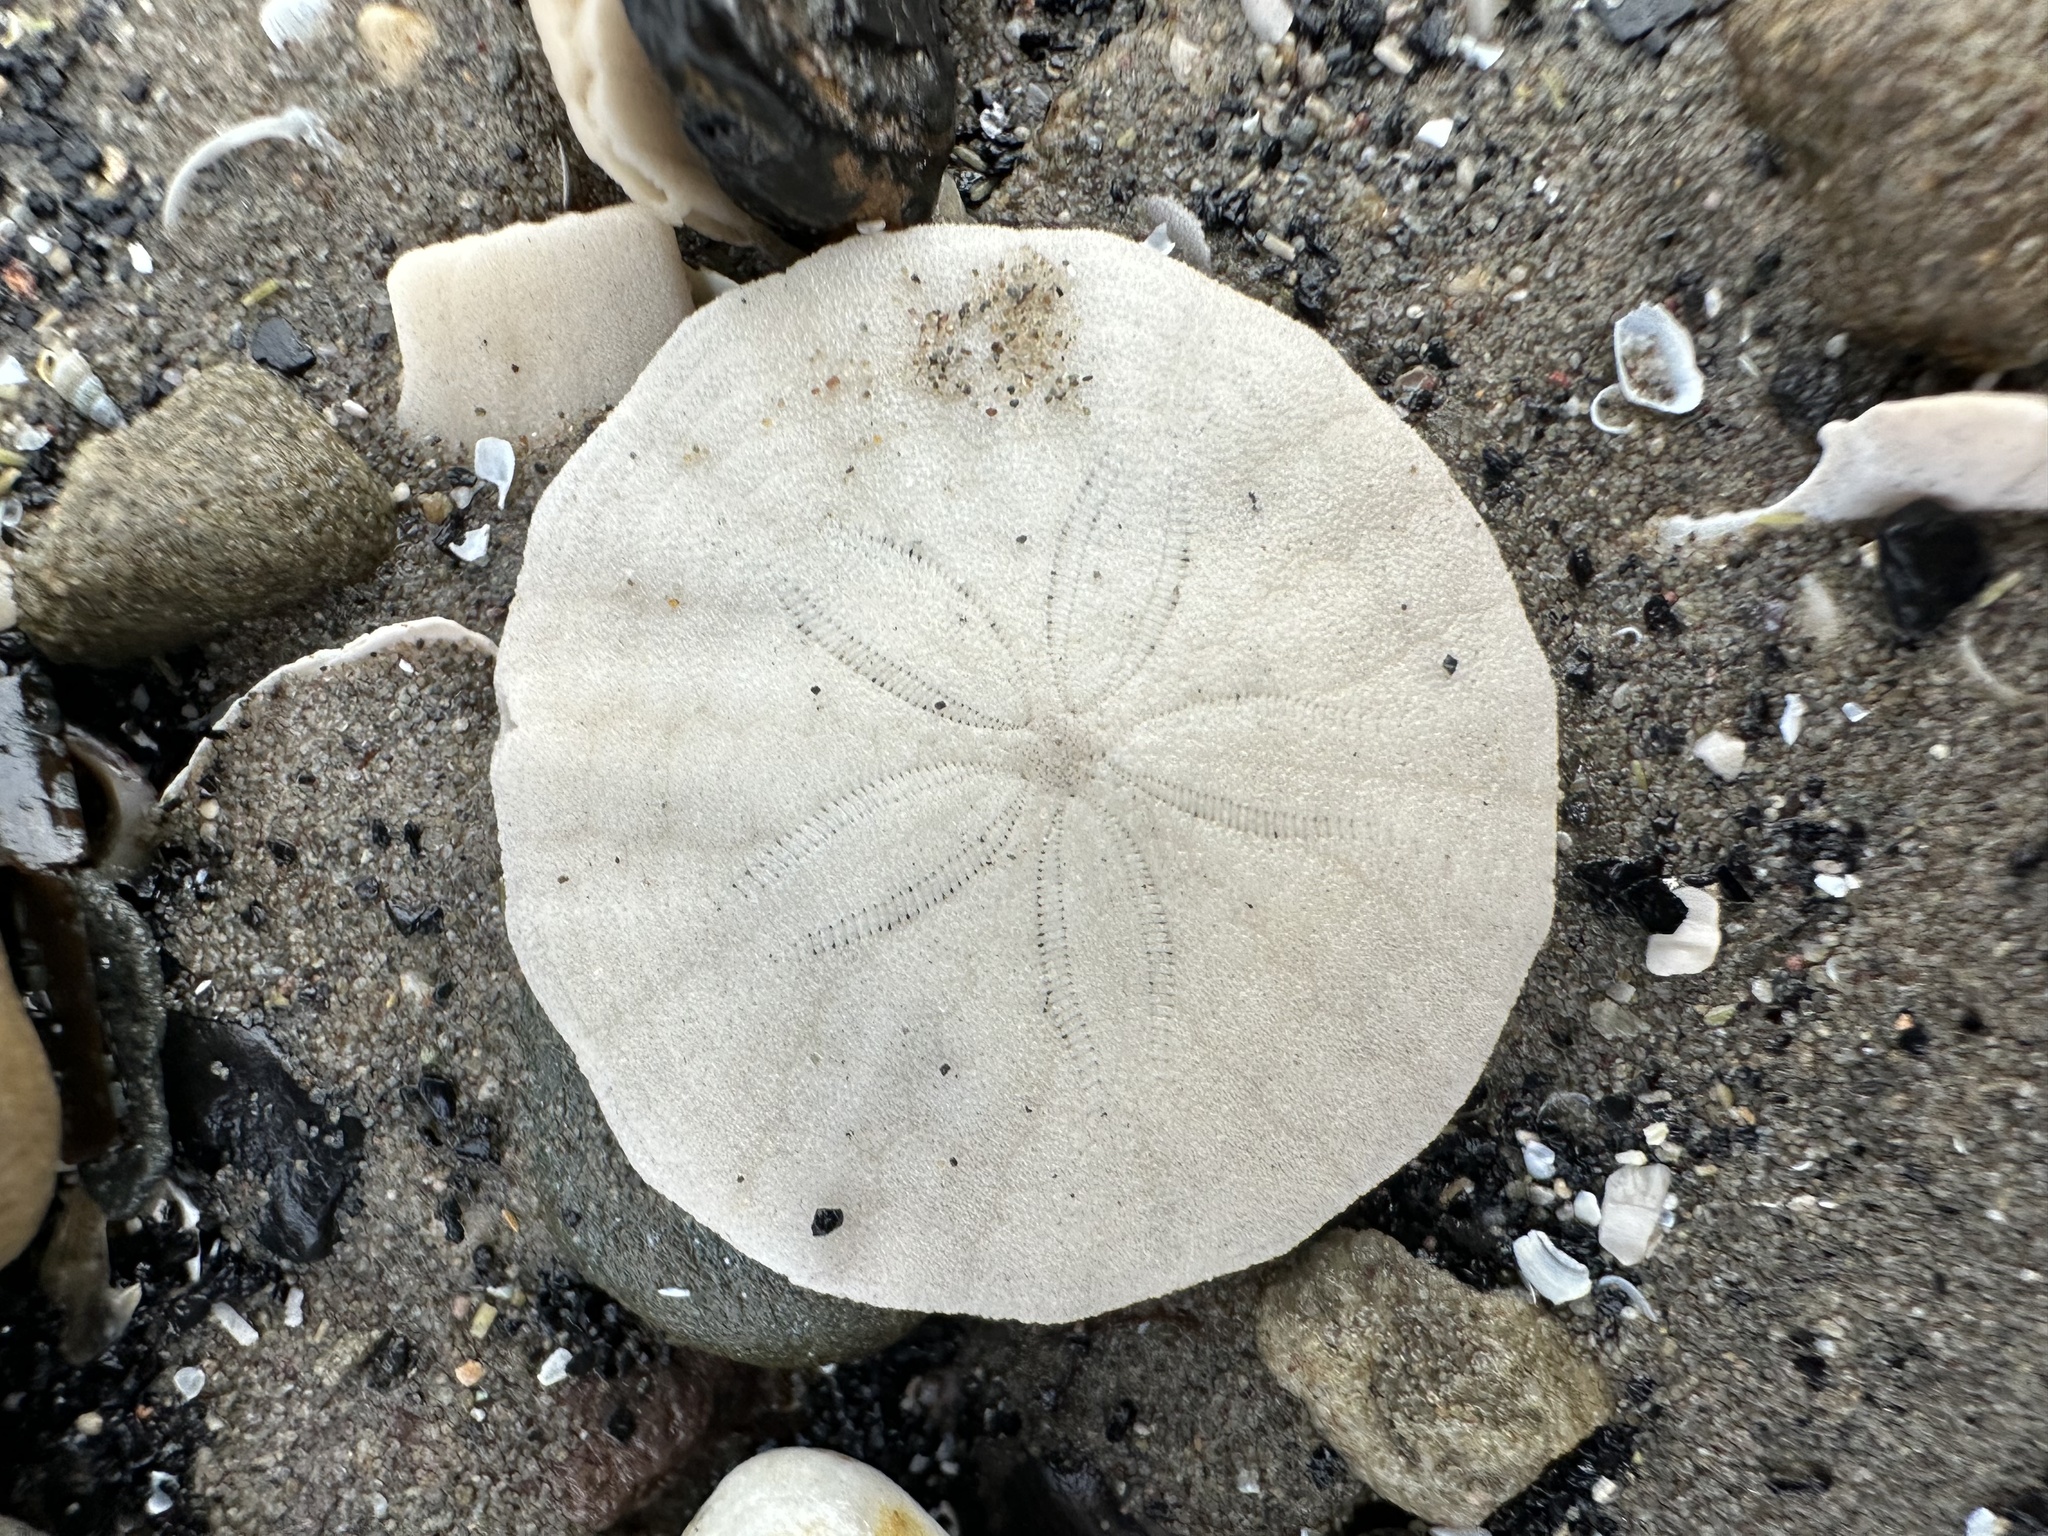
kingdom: Animalia
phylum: Echinodermata
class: Echinoidea
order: Echinolampadacea
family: Echinarachniidae
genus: Echinarachnius
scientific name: Echinarachnius parma
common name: Common sand dollar
